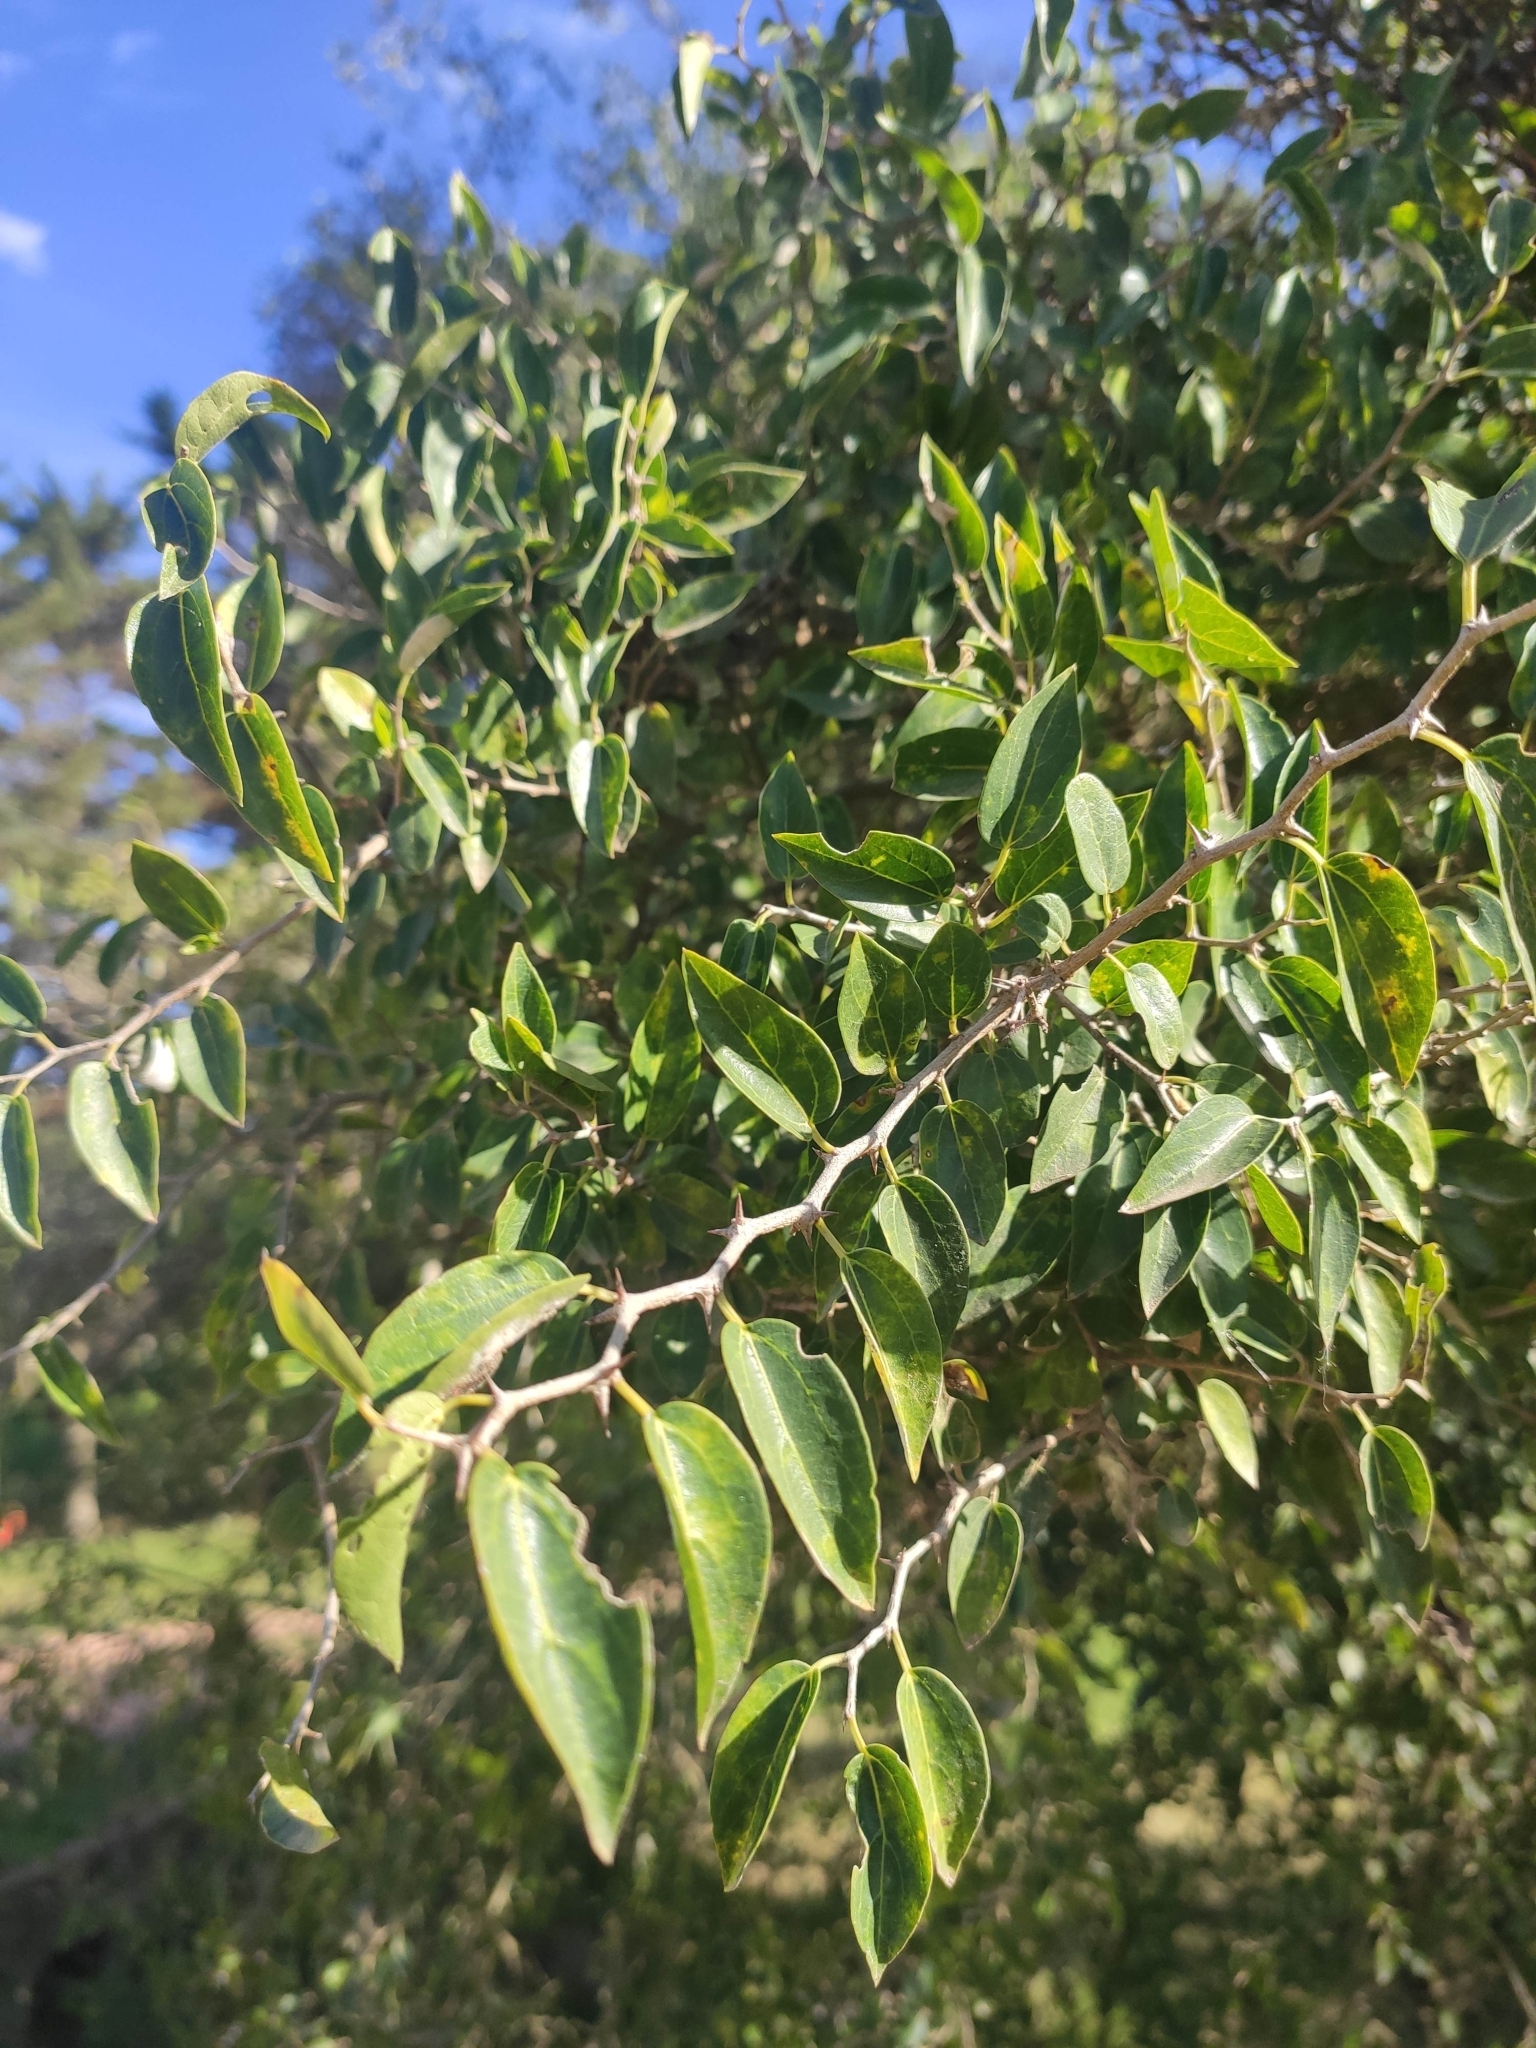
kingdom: Plantae
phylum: Tracheophyta
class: Magnoliopsida
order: Rosales
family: Cannabaceae
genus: Celtis
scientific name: Celtis tala
